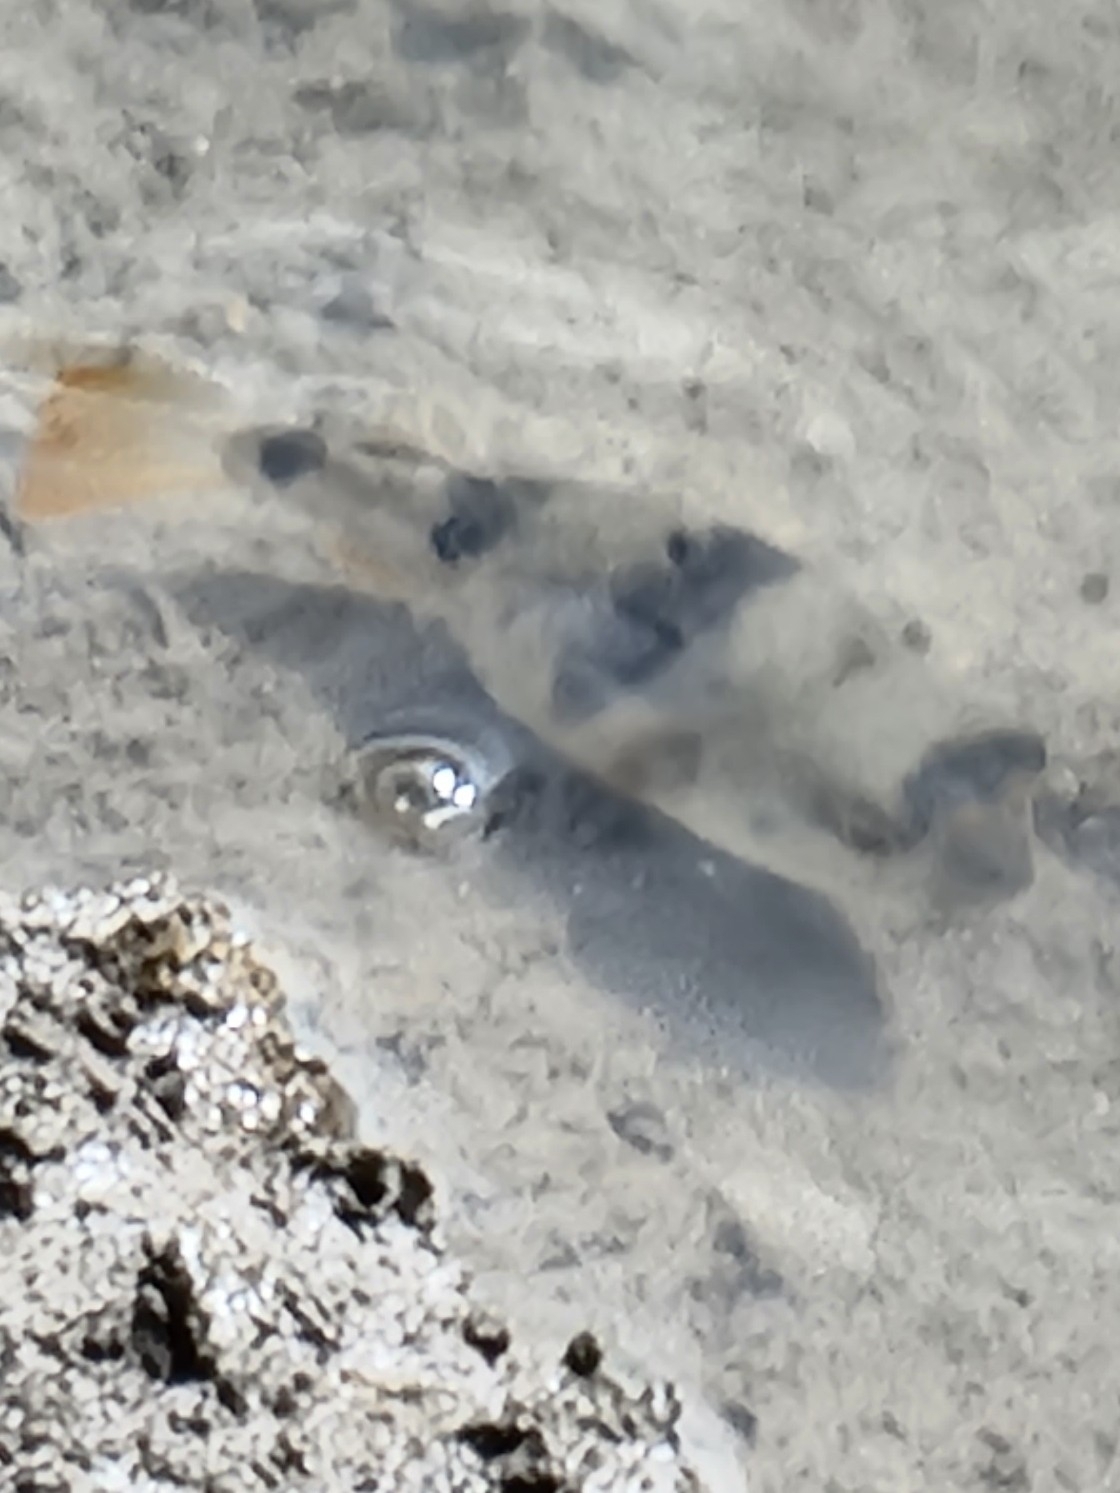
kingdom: Animalia
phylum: Chordata
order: Tetraodontiformes
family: Tetraodontidae
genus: Marilyna
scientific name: Marilyna pleurosticta
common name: Banded toadfish
